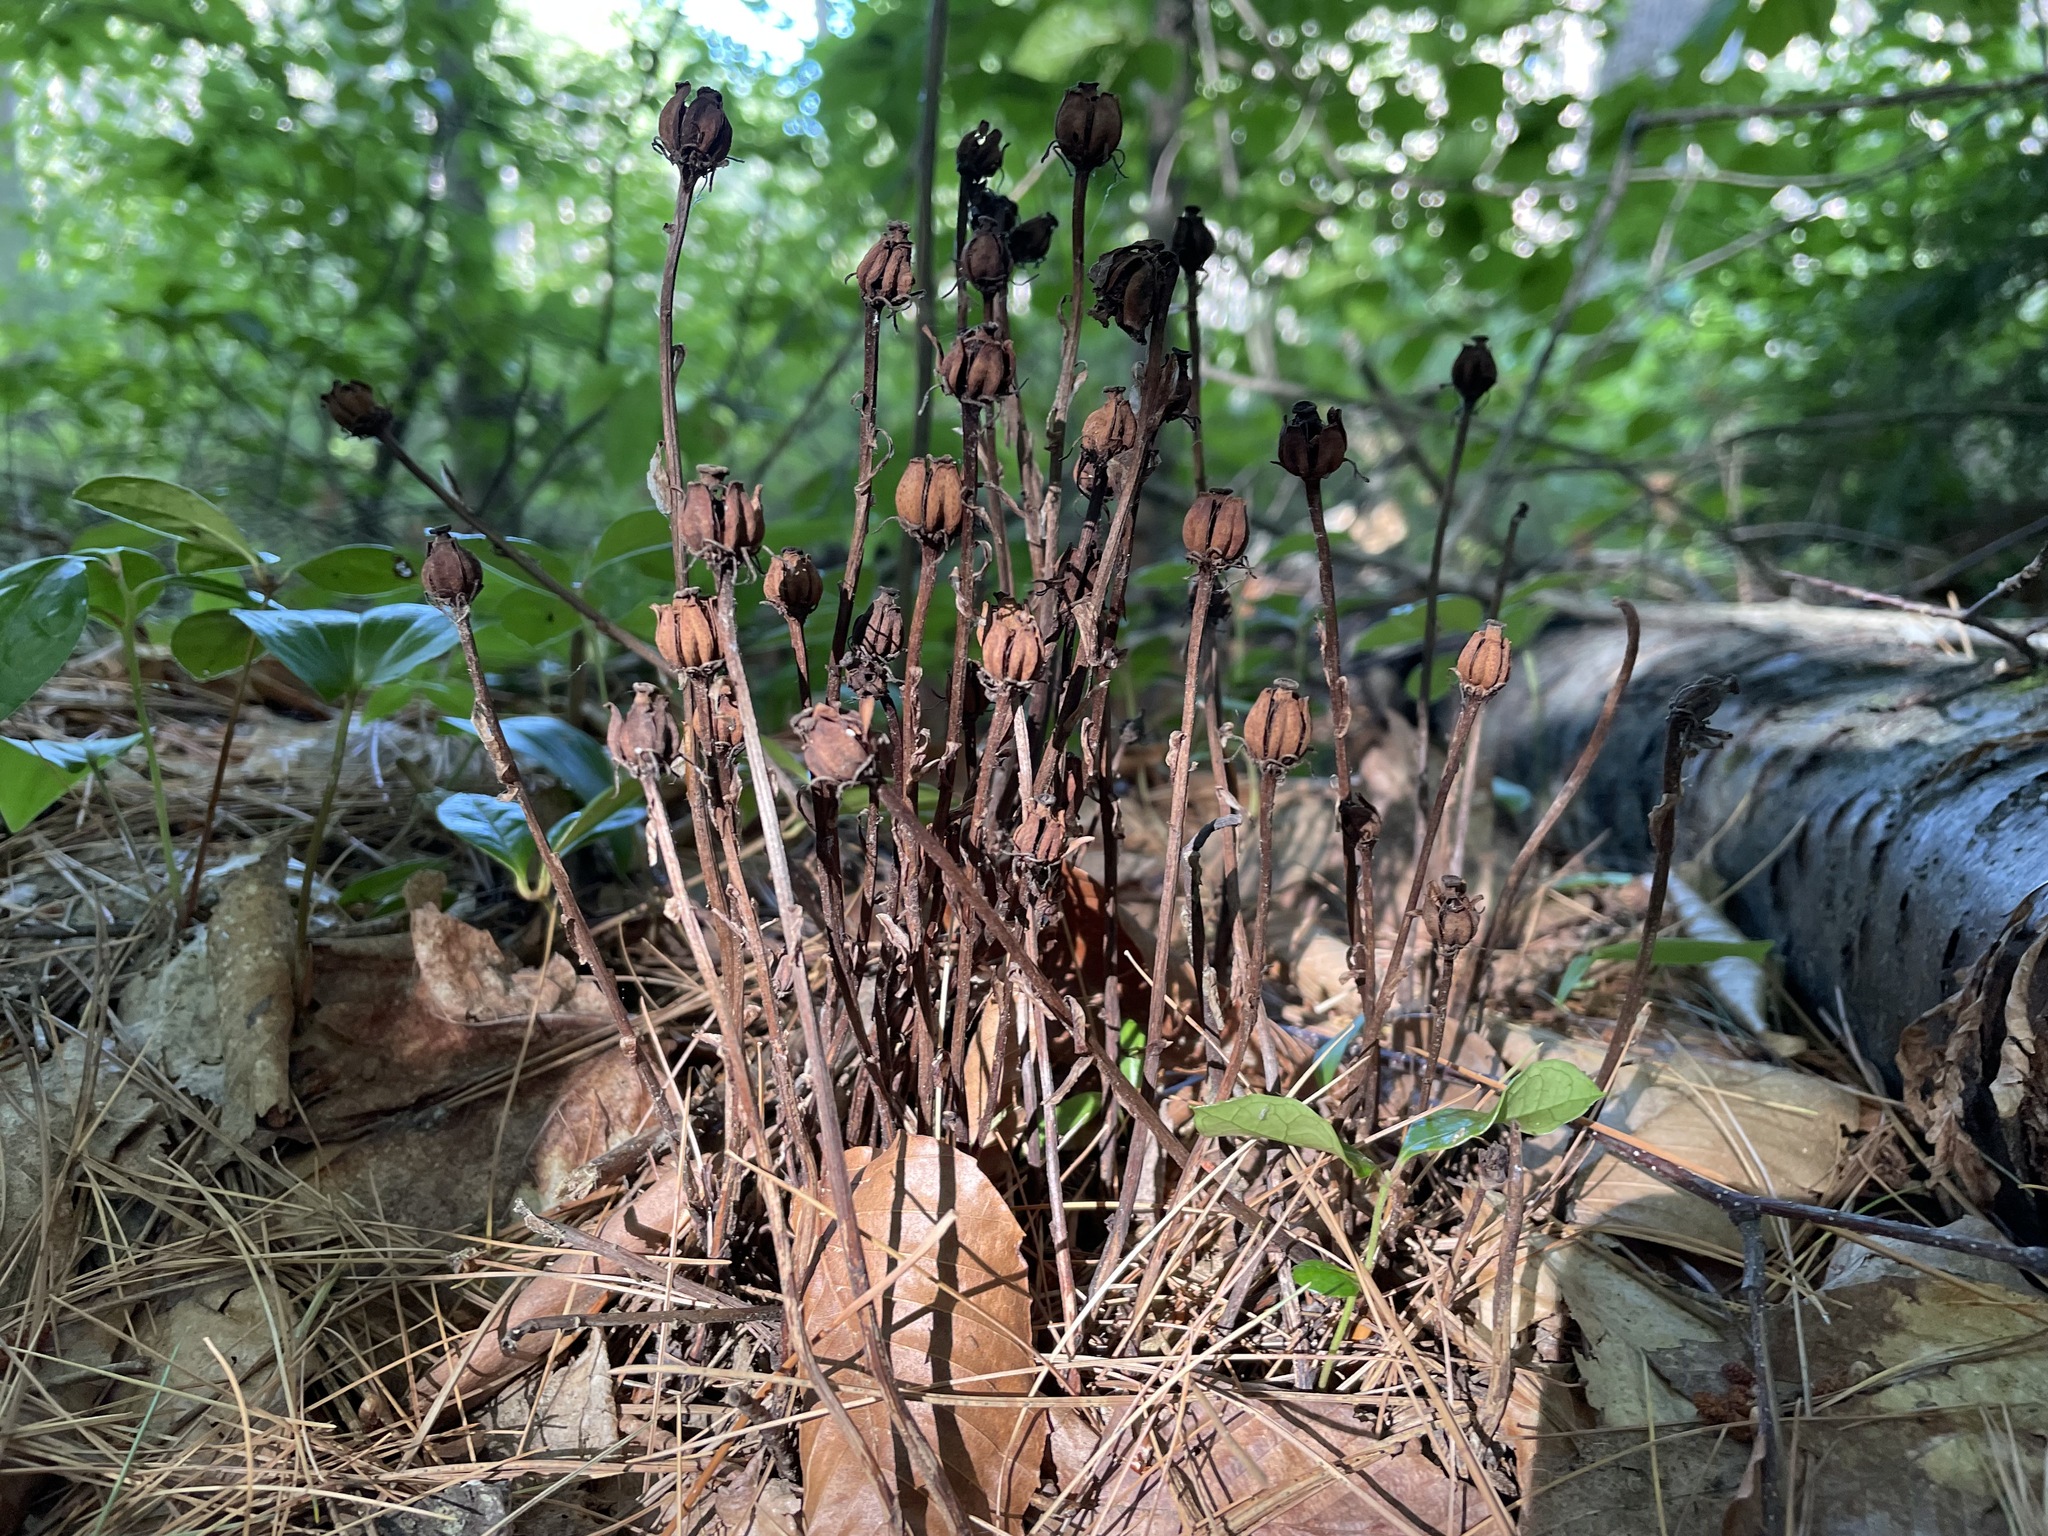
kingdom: Plantae
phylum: Tracheophyta
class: Magnoliopsida
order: Ericales
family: Ericaceae
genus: Monotropa
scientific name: Monotropa uniflora
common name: Convulsion root
